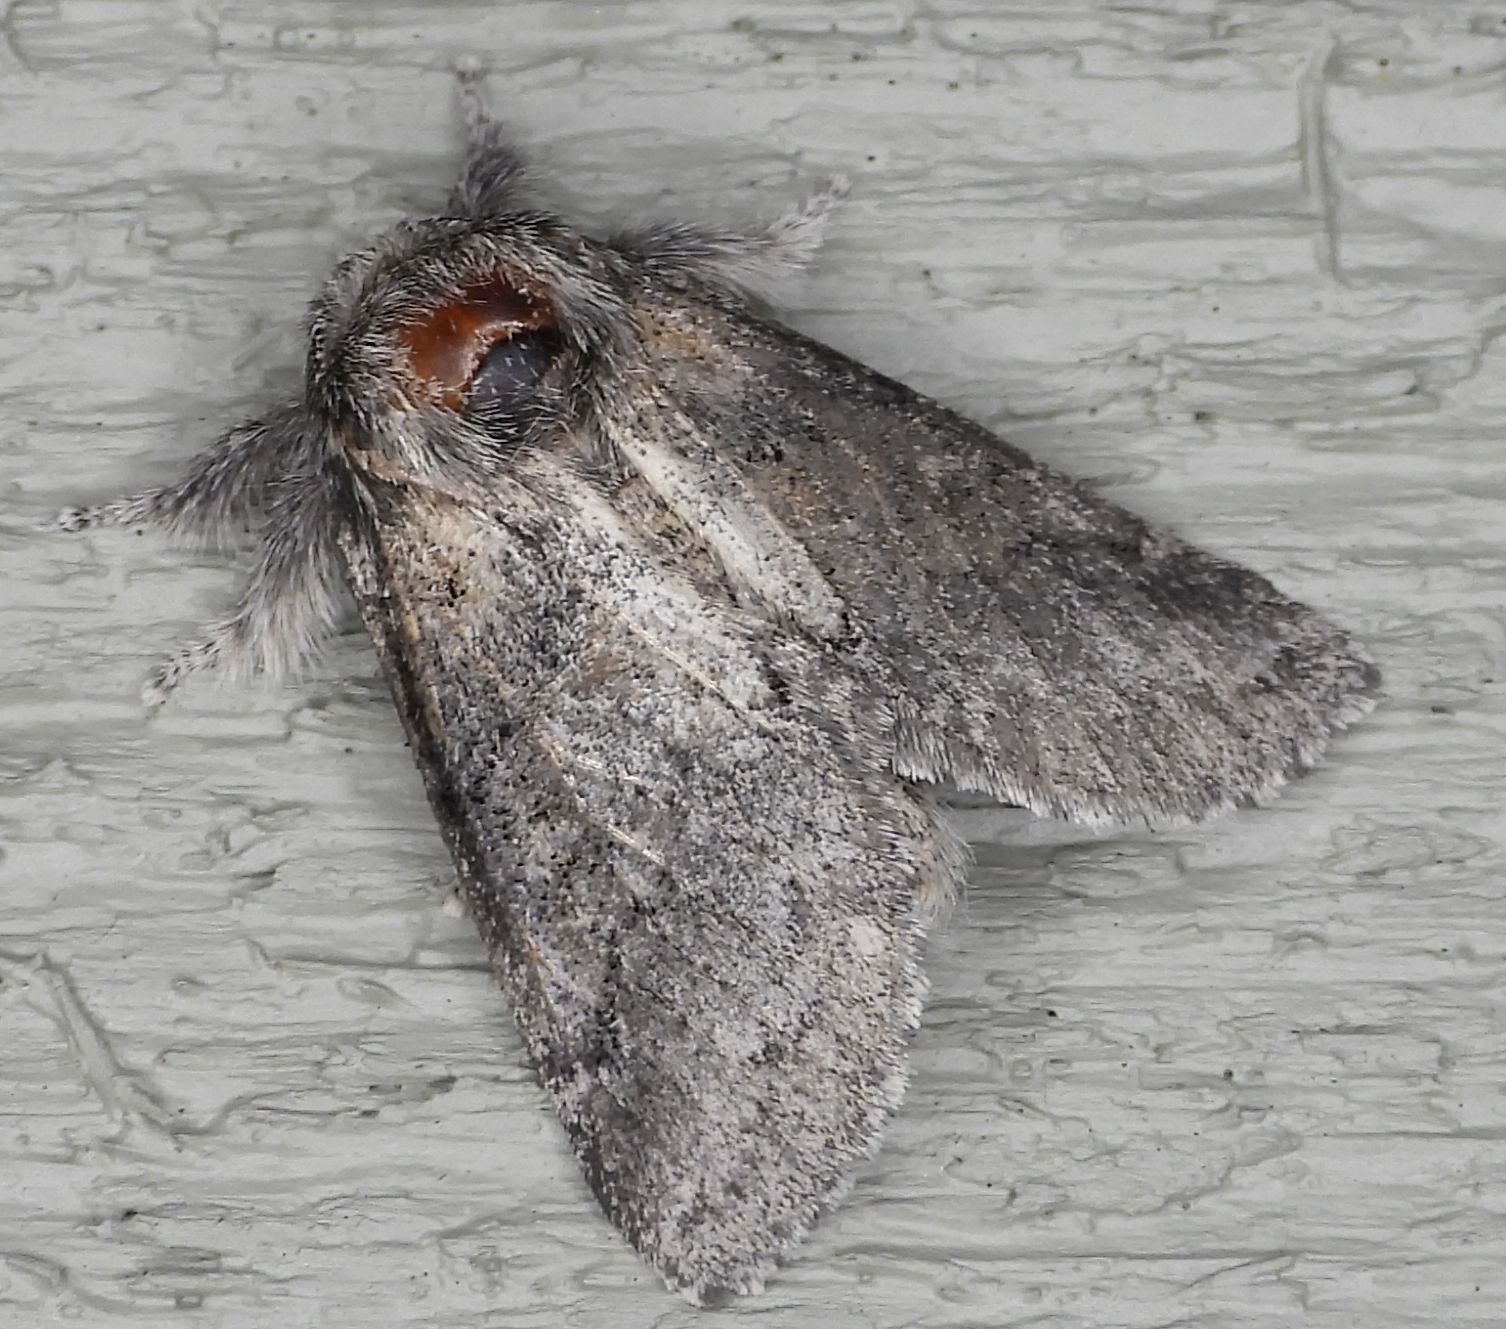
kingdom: Animalia
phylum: Arthropoda
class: Insecta
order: Lepidoptera
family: Notodontidae
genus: Gluphisia
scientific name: Gluphisia septentrionis
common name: Common gluphisia
